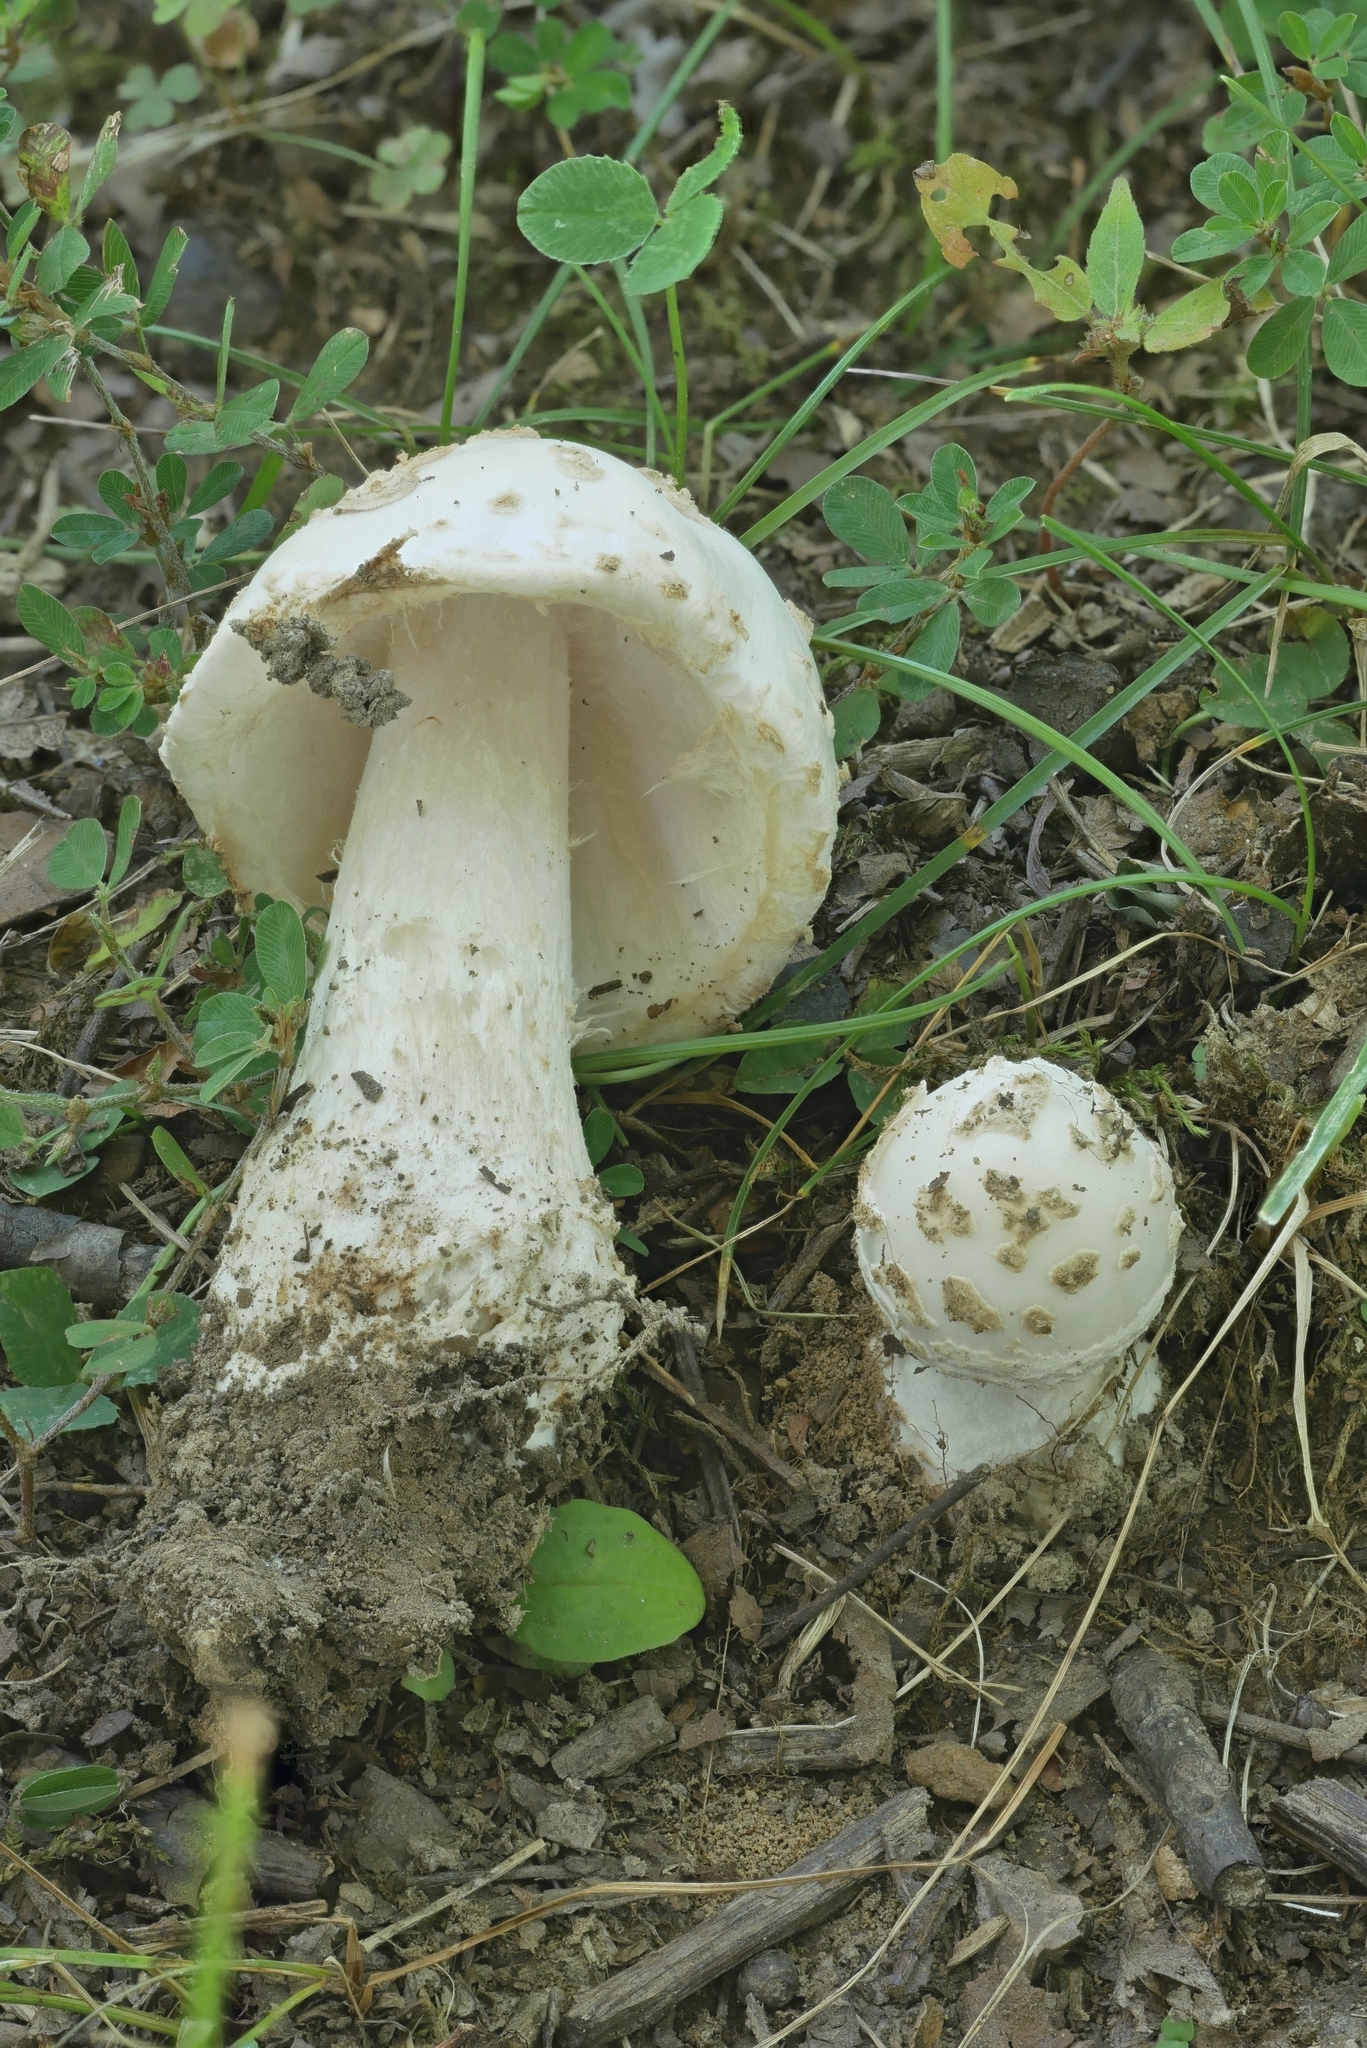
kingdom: Fungi
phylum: Basidiomycota
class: Agaricomycetes
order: Agaricales
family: Amanitaceae
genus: Amanita
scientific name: Amanita canescens
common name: Golden threads lepidella
